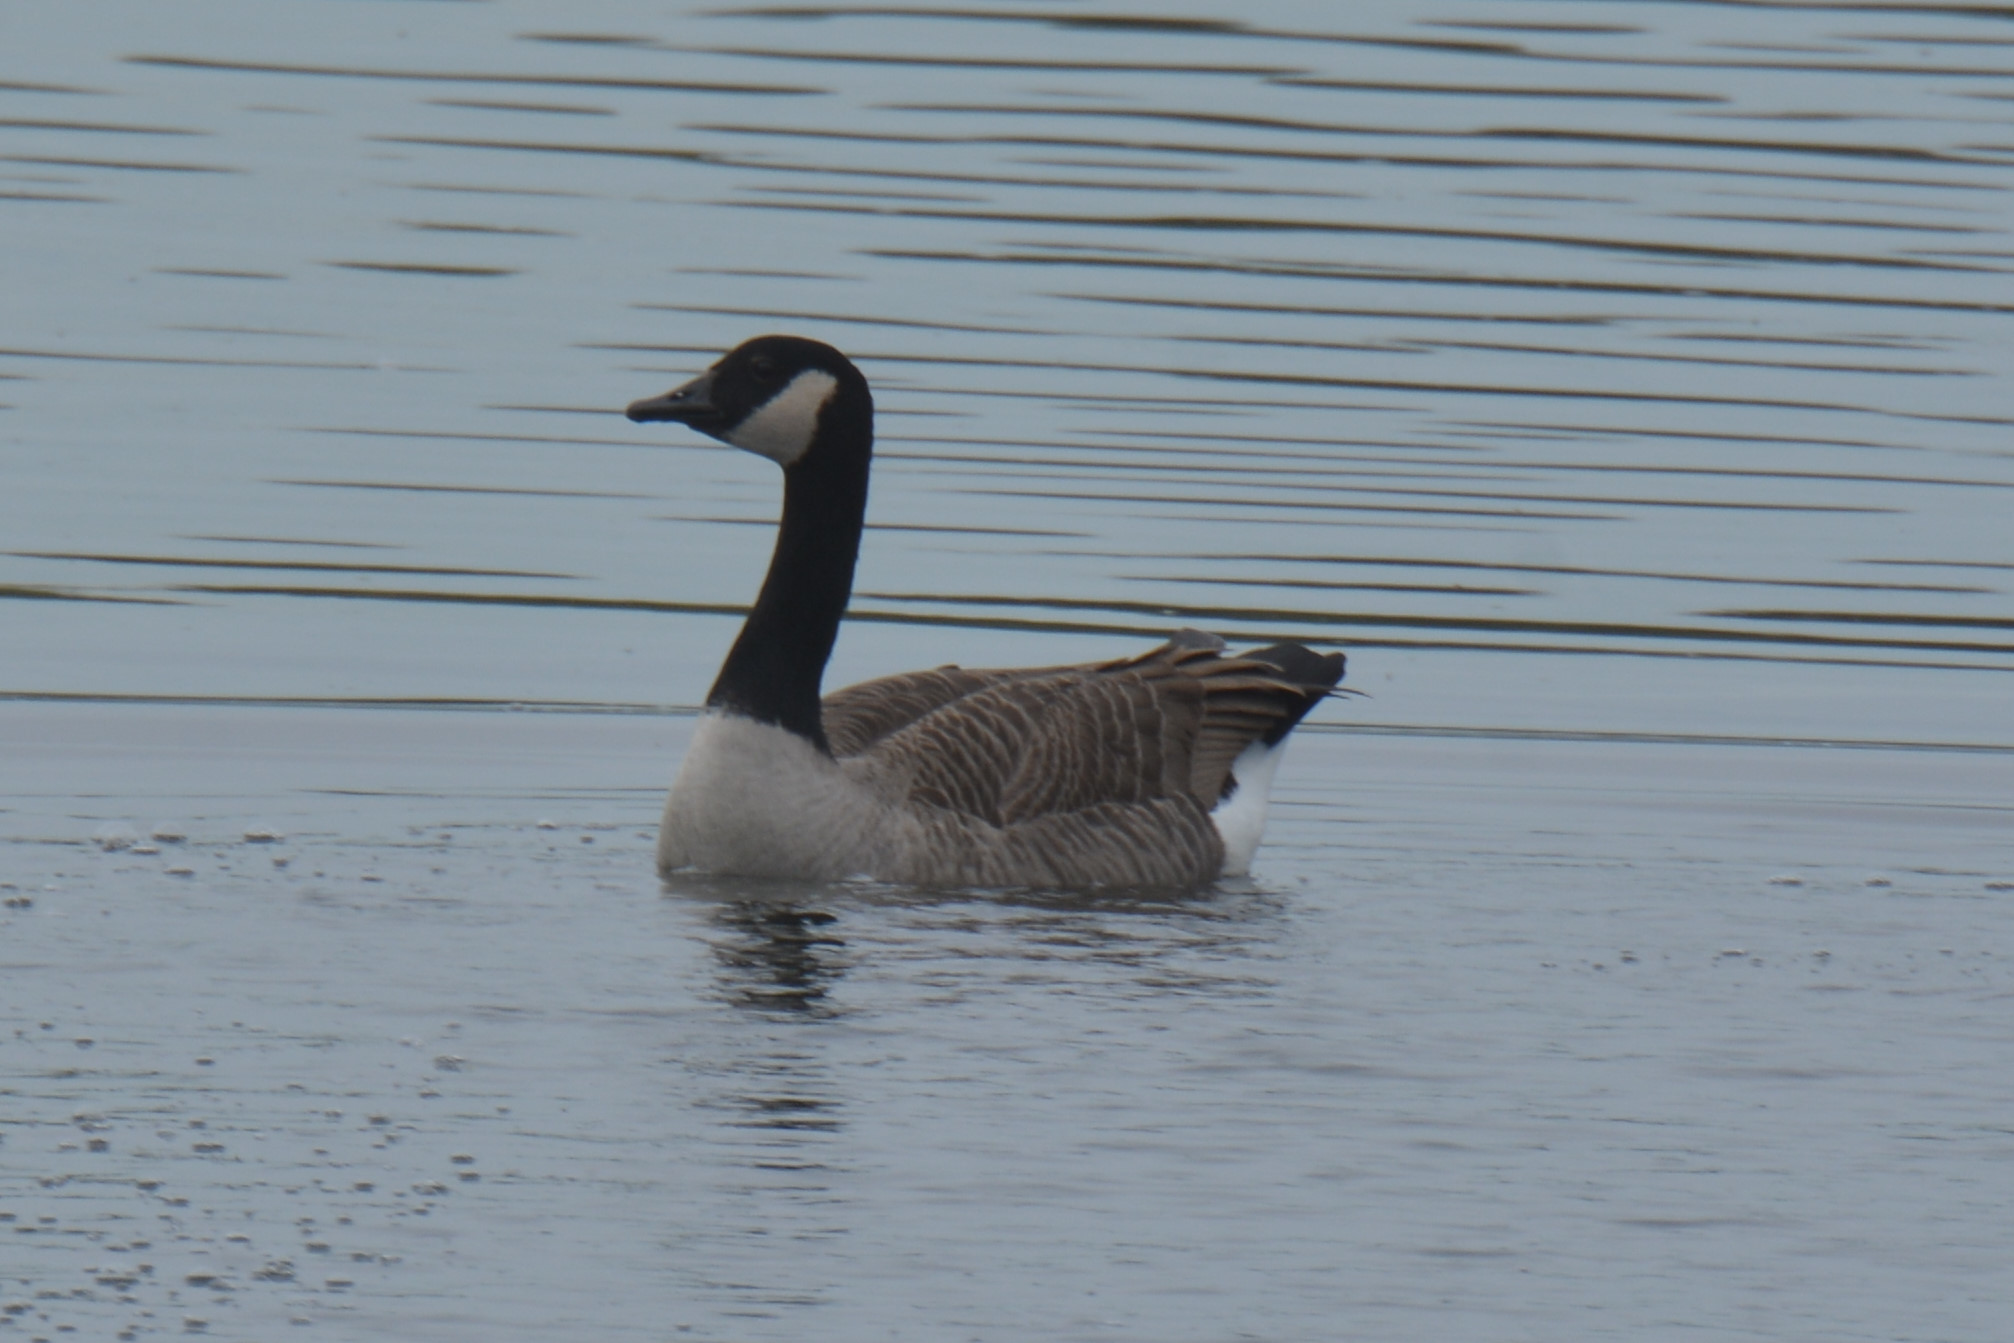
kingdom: Animalia
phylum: Chordata
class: Aves
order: Anseriformes
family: Anatidae
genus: Branta
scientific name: Branta canadensis
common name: Canada goose
